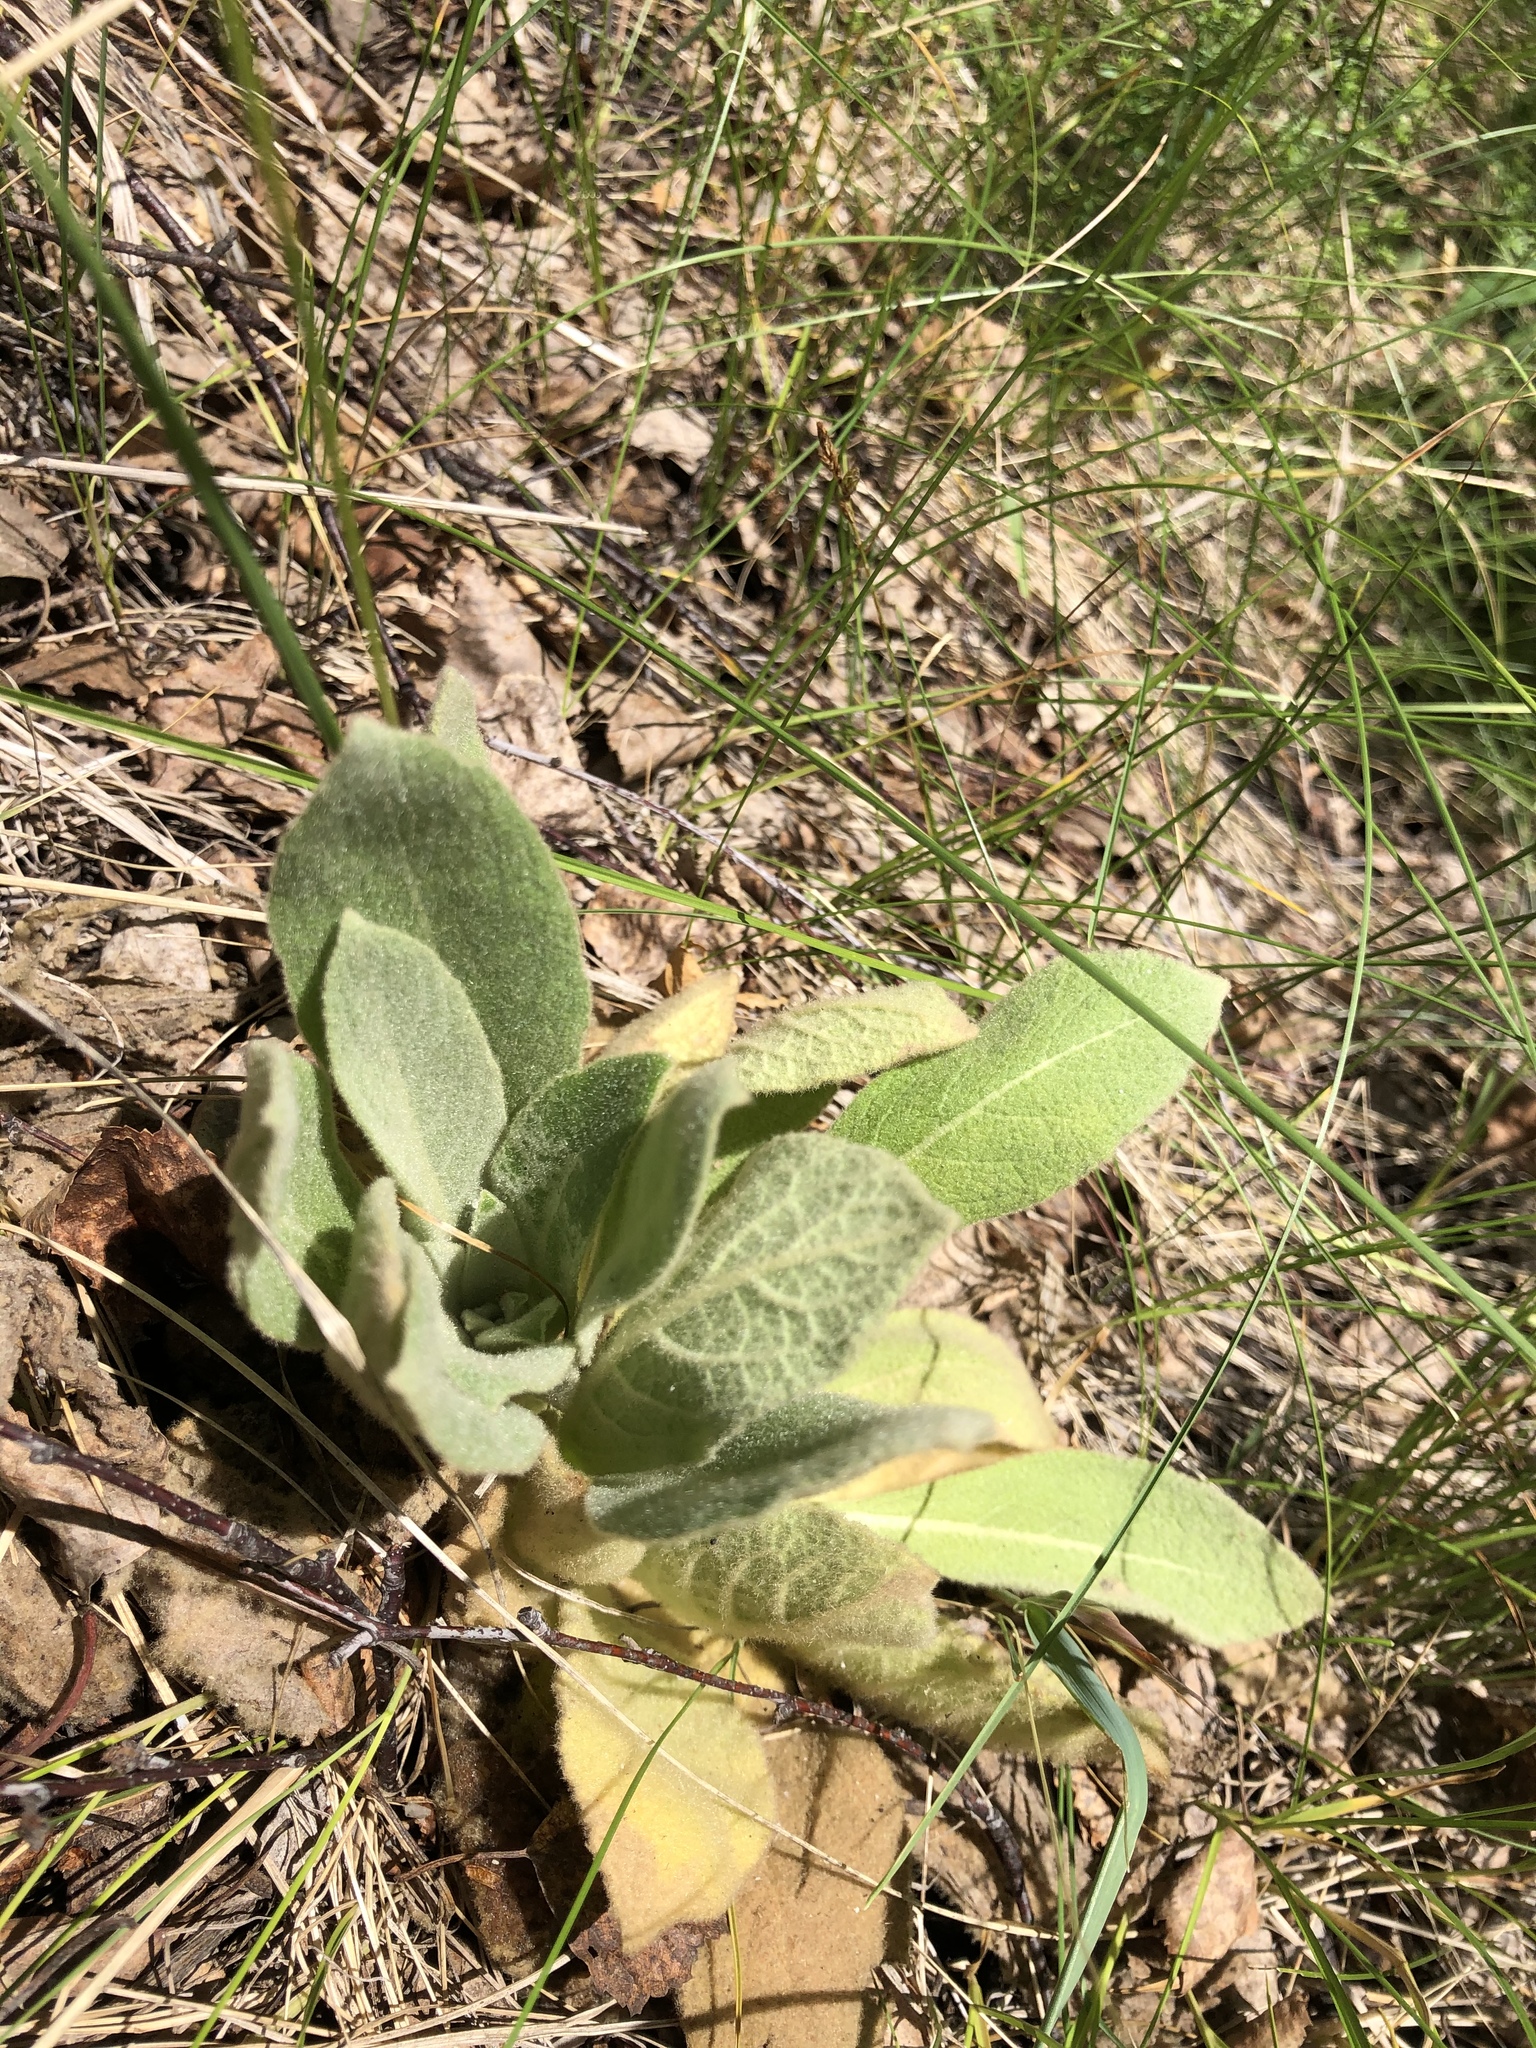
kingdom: Plantae
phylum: Tracheophyta
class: Magnoliopsida
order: Lamiales
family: Scrophulariaceae
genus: Verbascum
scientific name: Verbascum thapsus
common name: Common mullein
